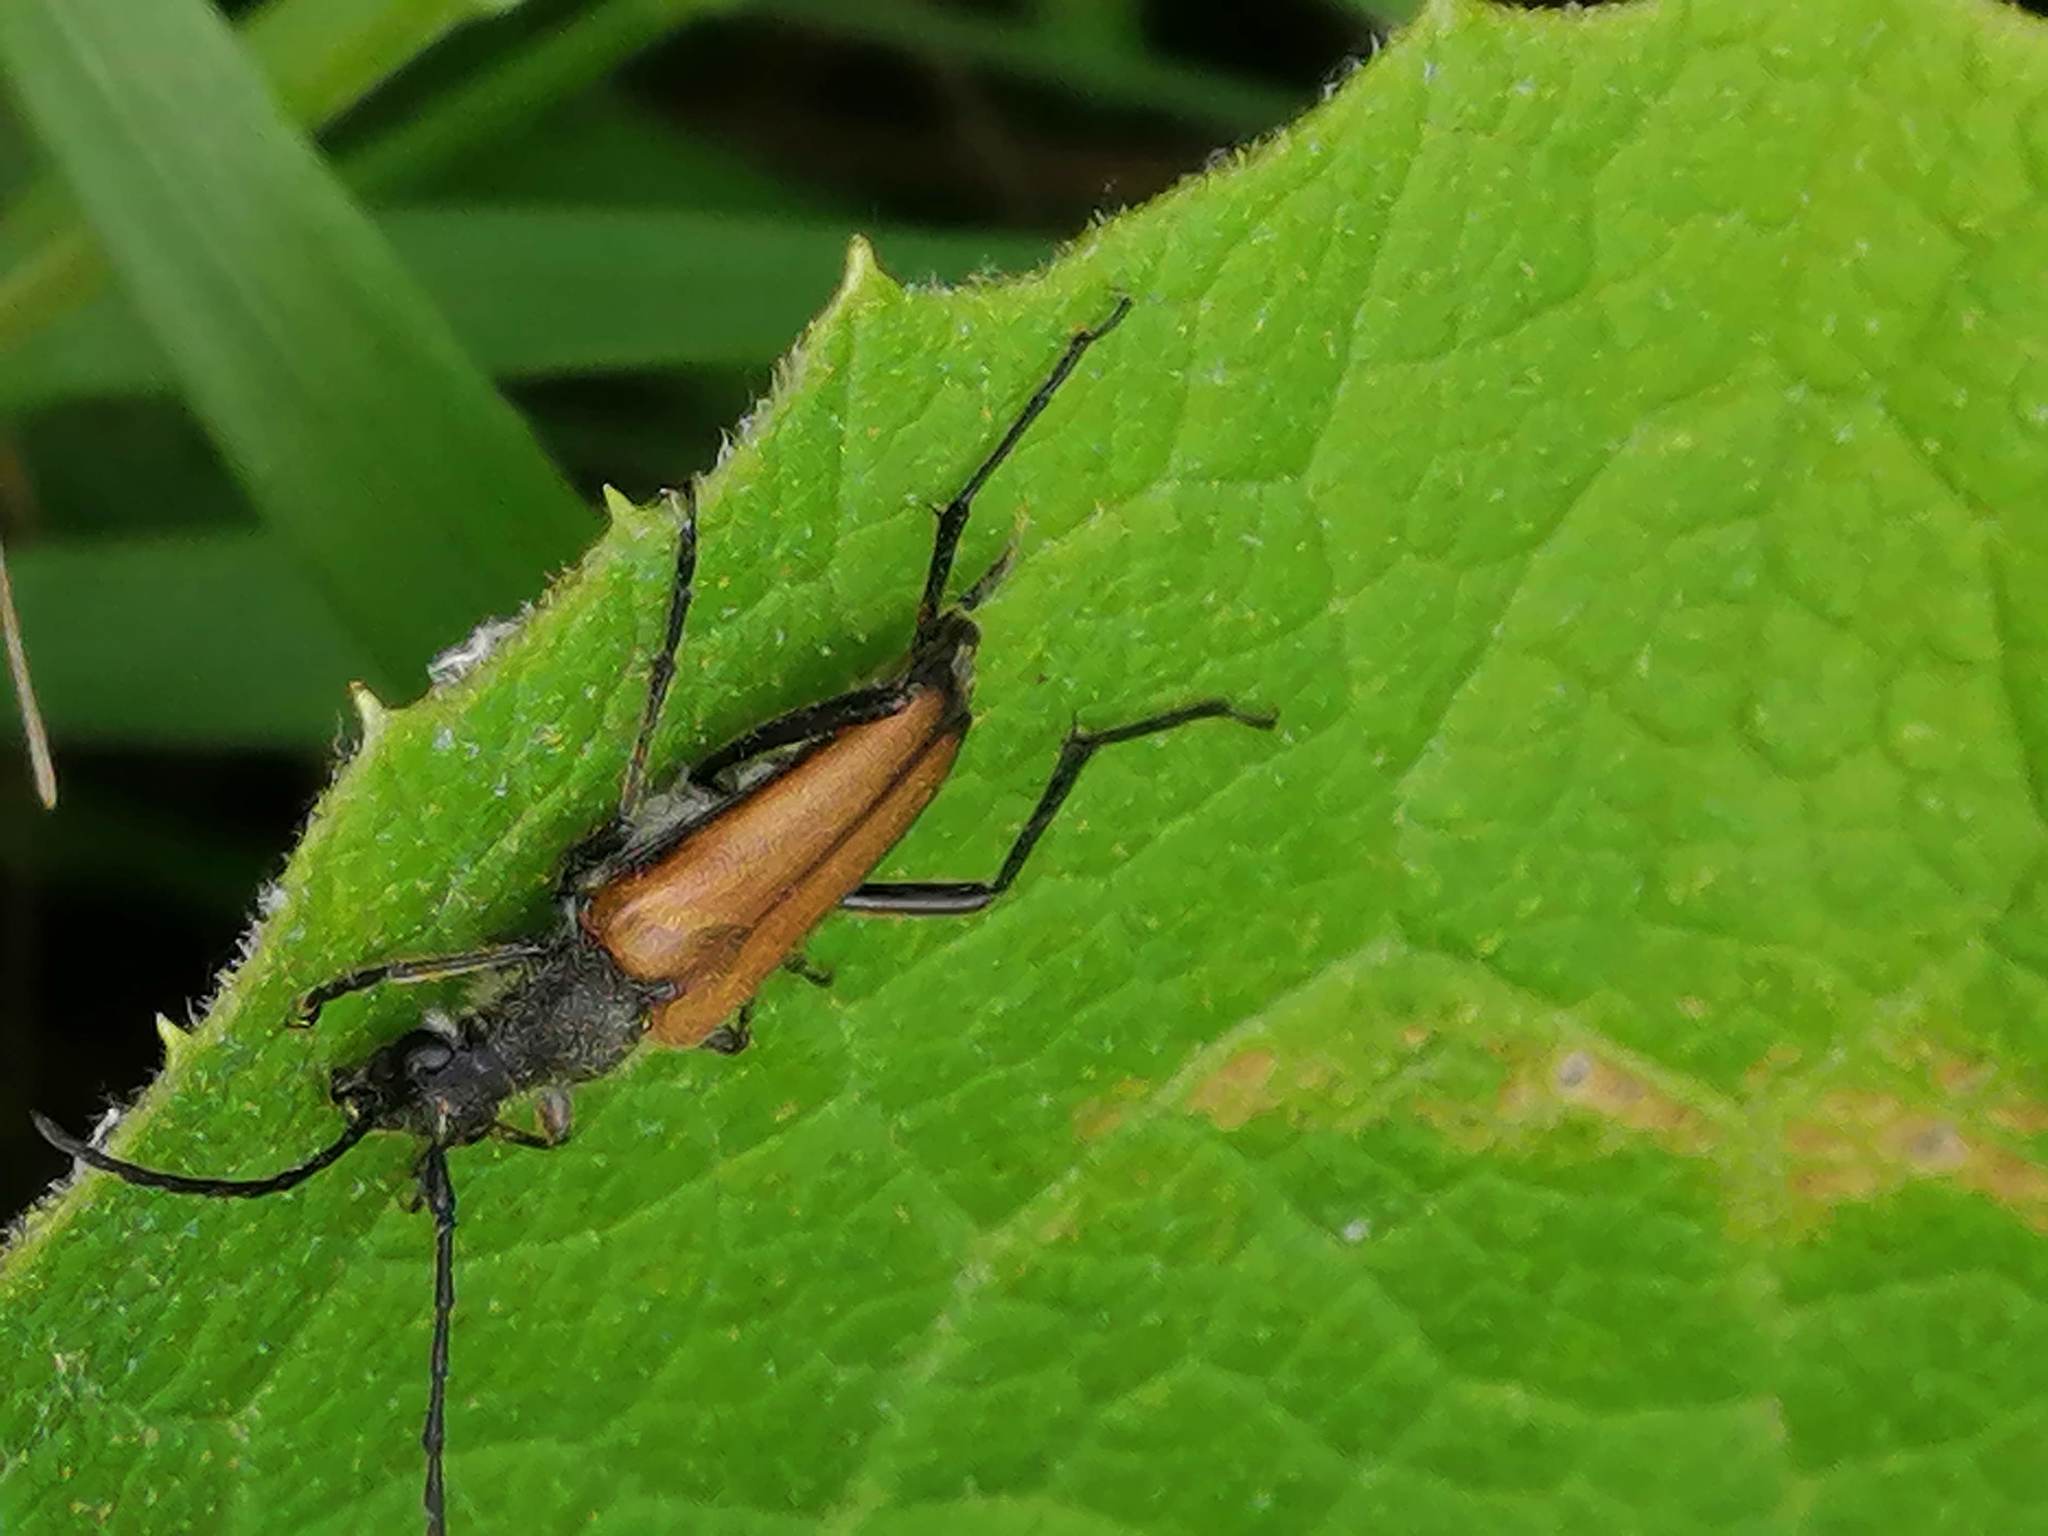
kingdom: Animalia
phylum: Arthropoda
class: Insecta
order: Coleoptera
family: Cerambycidae
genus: Anastrangalia
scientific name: Anastrangalia reyi
